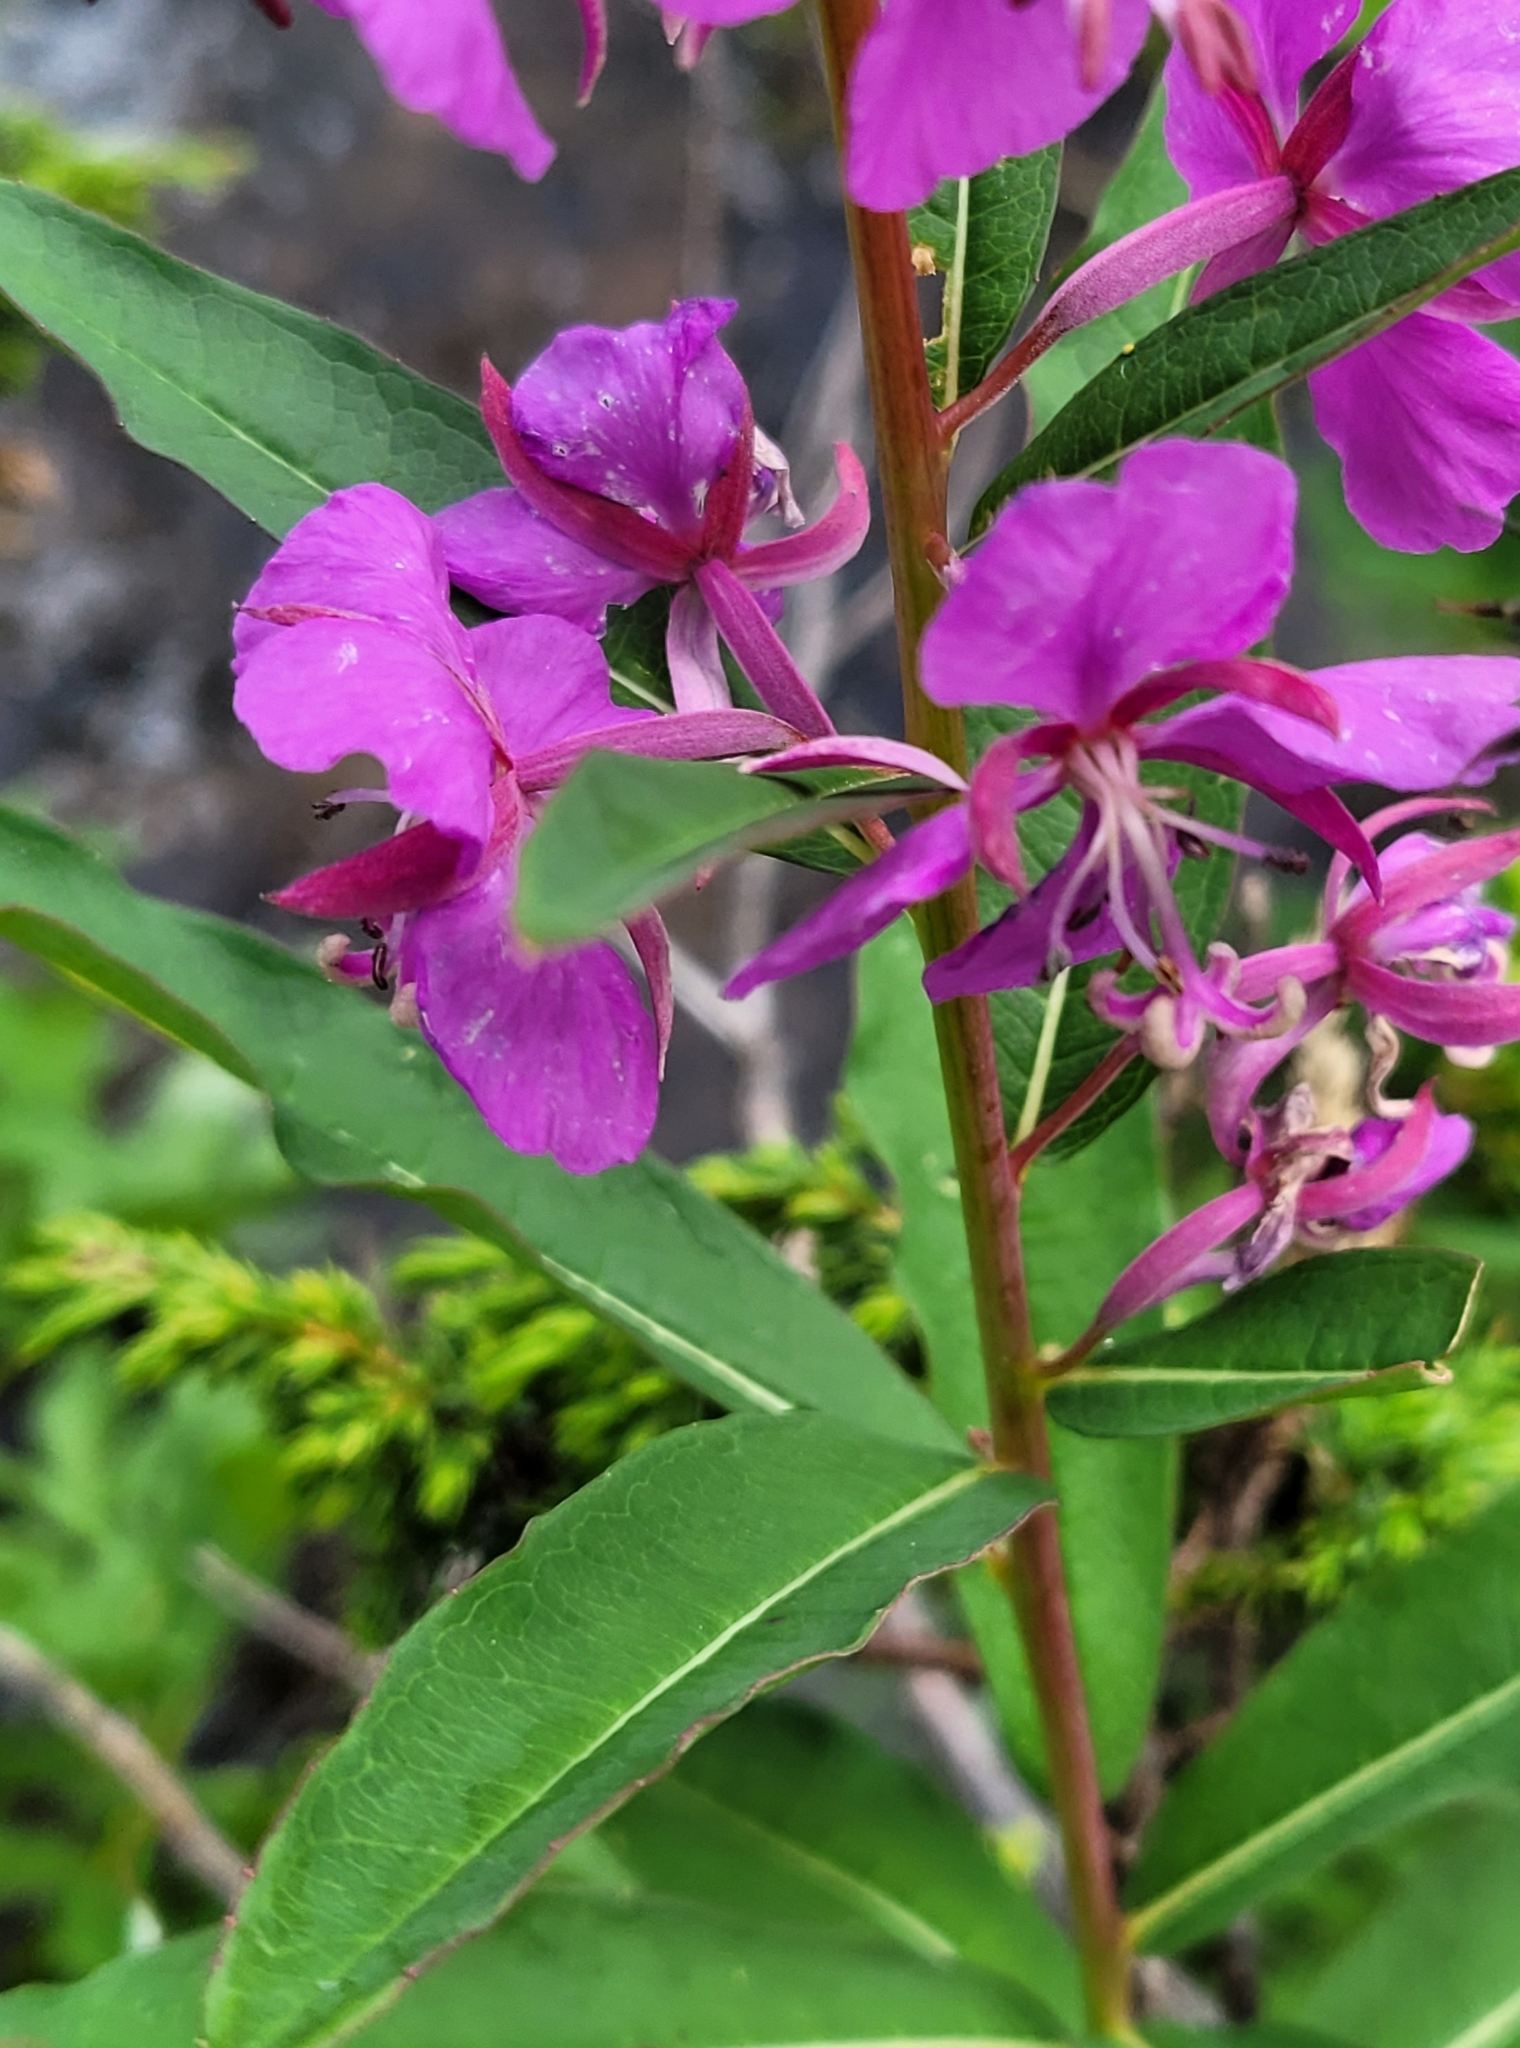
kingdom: Plantae
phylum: Tracheophyta
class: Magnoliopsida
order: Myrtales
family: Onagraceae
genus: Chamaenerion
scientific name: Chamaenerion angustifolium
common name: Fireweed
